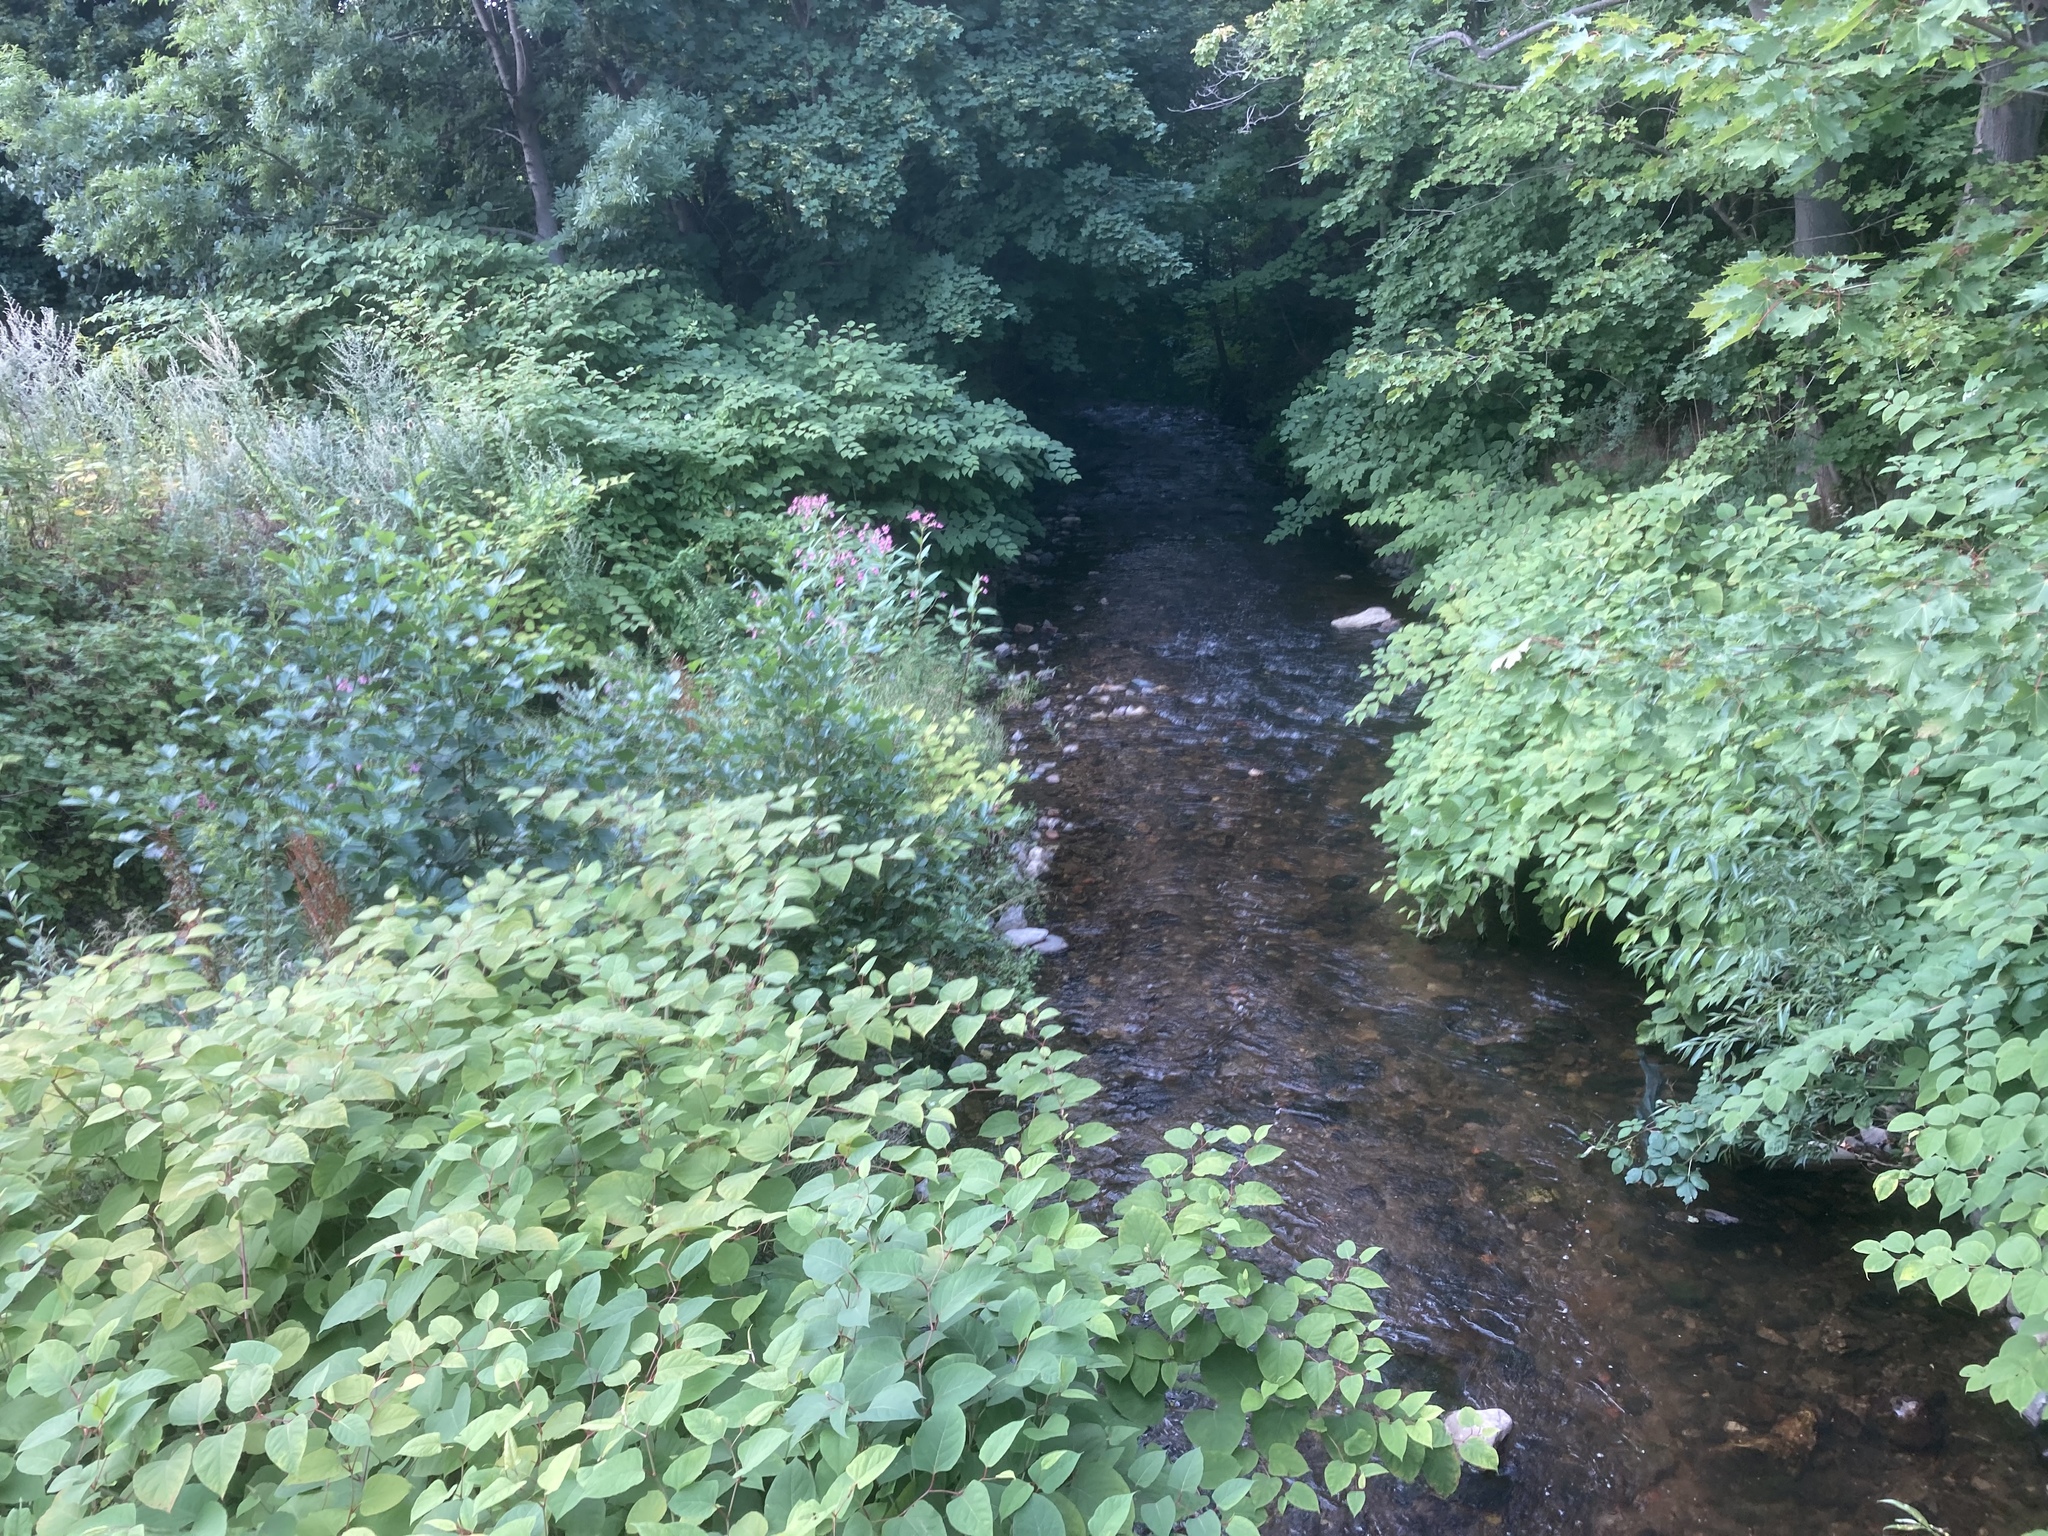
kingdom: Plantae
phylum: Tracheophyta
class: Magnoliopsida
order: Ericales
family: Balsaminaceae
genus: Impatiens
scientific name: Impatiens glandulifera
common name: Himalayan balsam
